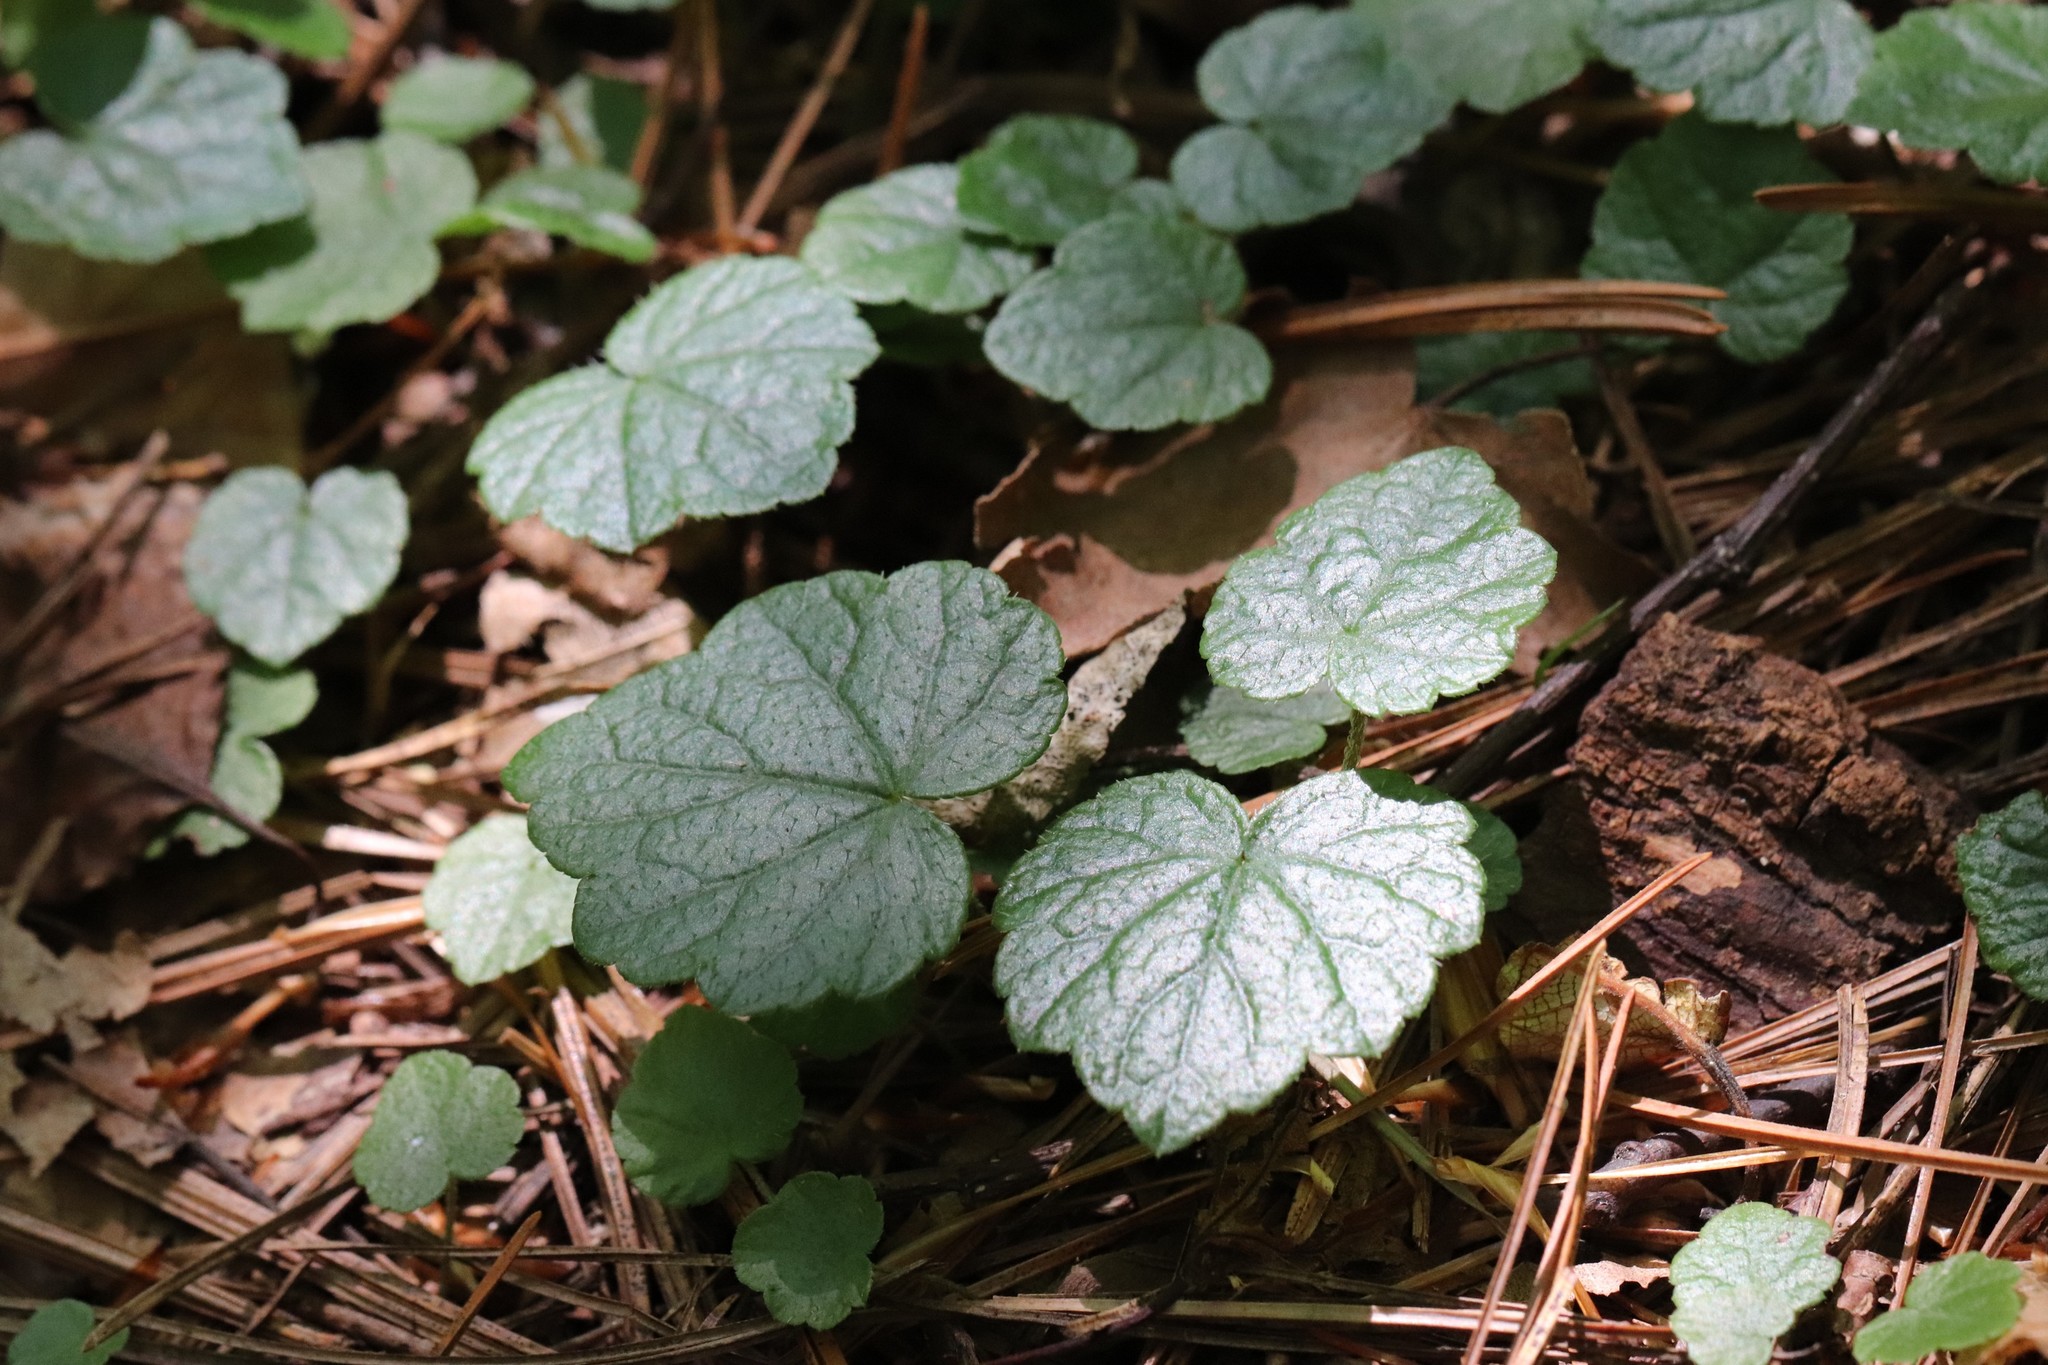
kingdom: Plantae
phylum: Tracheophyta
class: Magnoliopsida
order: Saxifragales
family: Saxifragaceae
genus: Mitella
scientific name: Mitella nuda
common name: Bare-stemmed bishop's-cap
